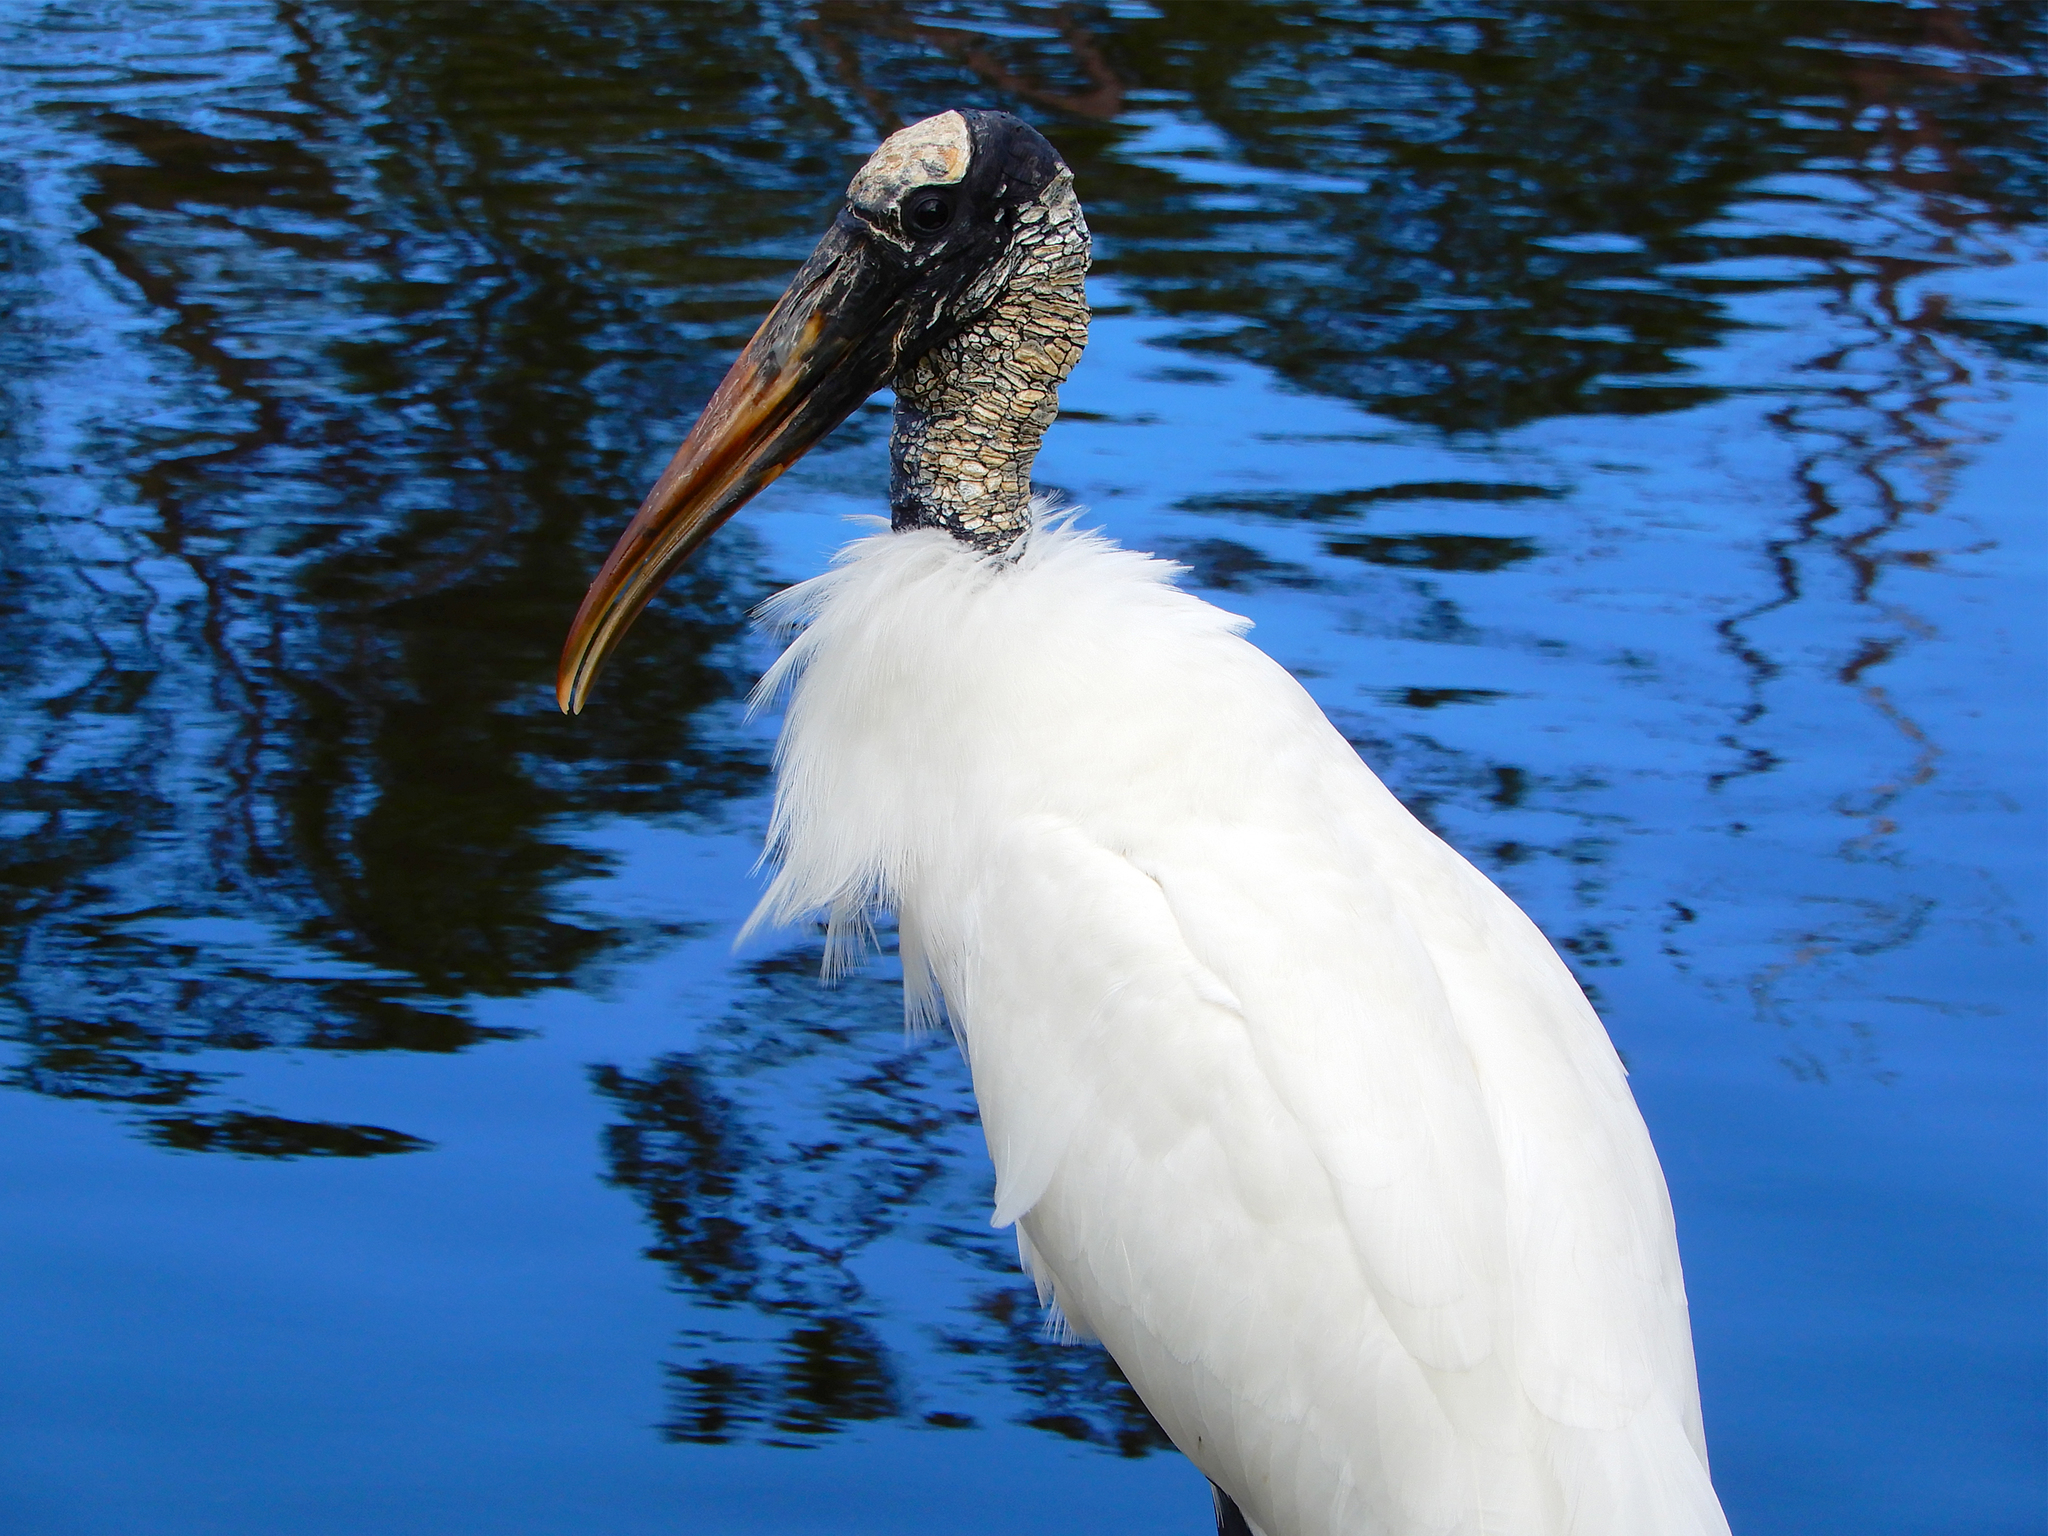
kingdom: Animalia
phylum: Chordata
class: Aves
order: Ciconiiformes
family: Ciconiidae
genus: Mycteria
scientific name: Mycteria americana
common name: Wood stork
